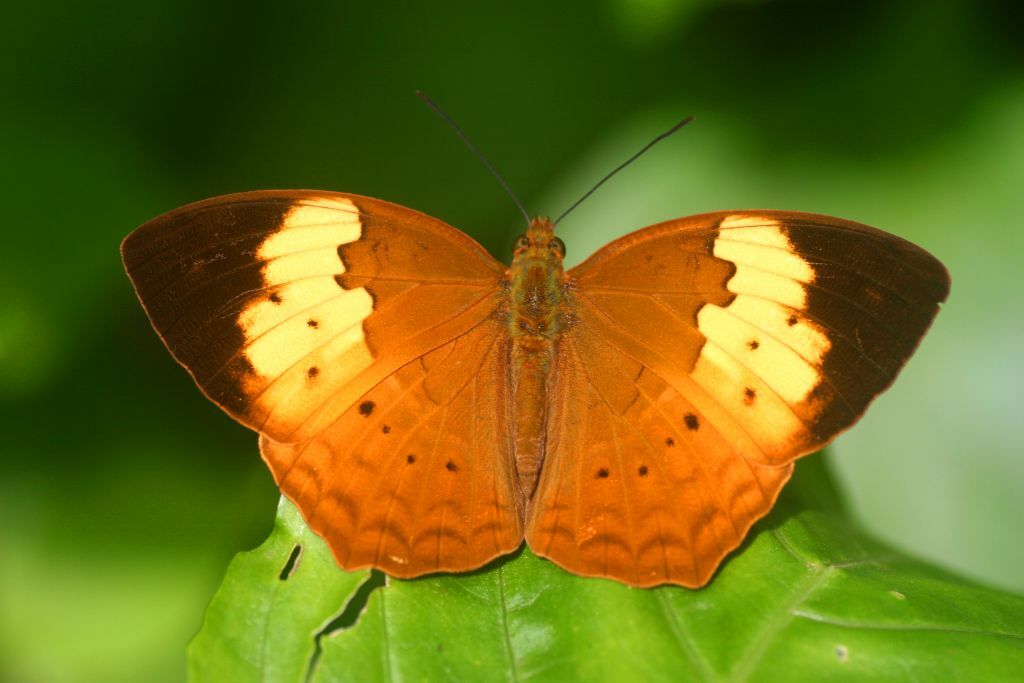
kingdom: Animalia
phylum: Arthropoda
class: Insecta
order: Lepidoptera
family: Nymphalidae
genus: Cupha
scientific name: Cupha erymanthis
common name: Rustic
